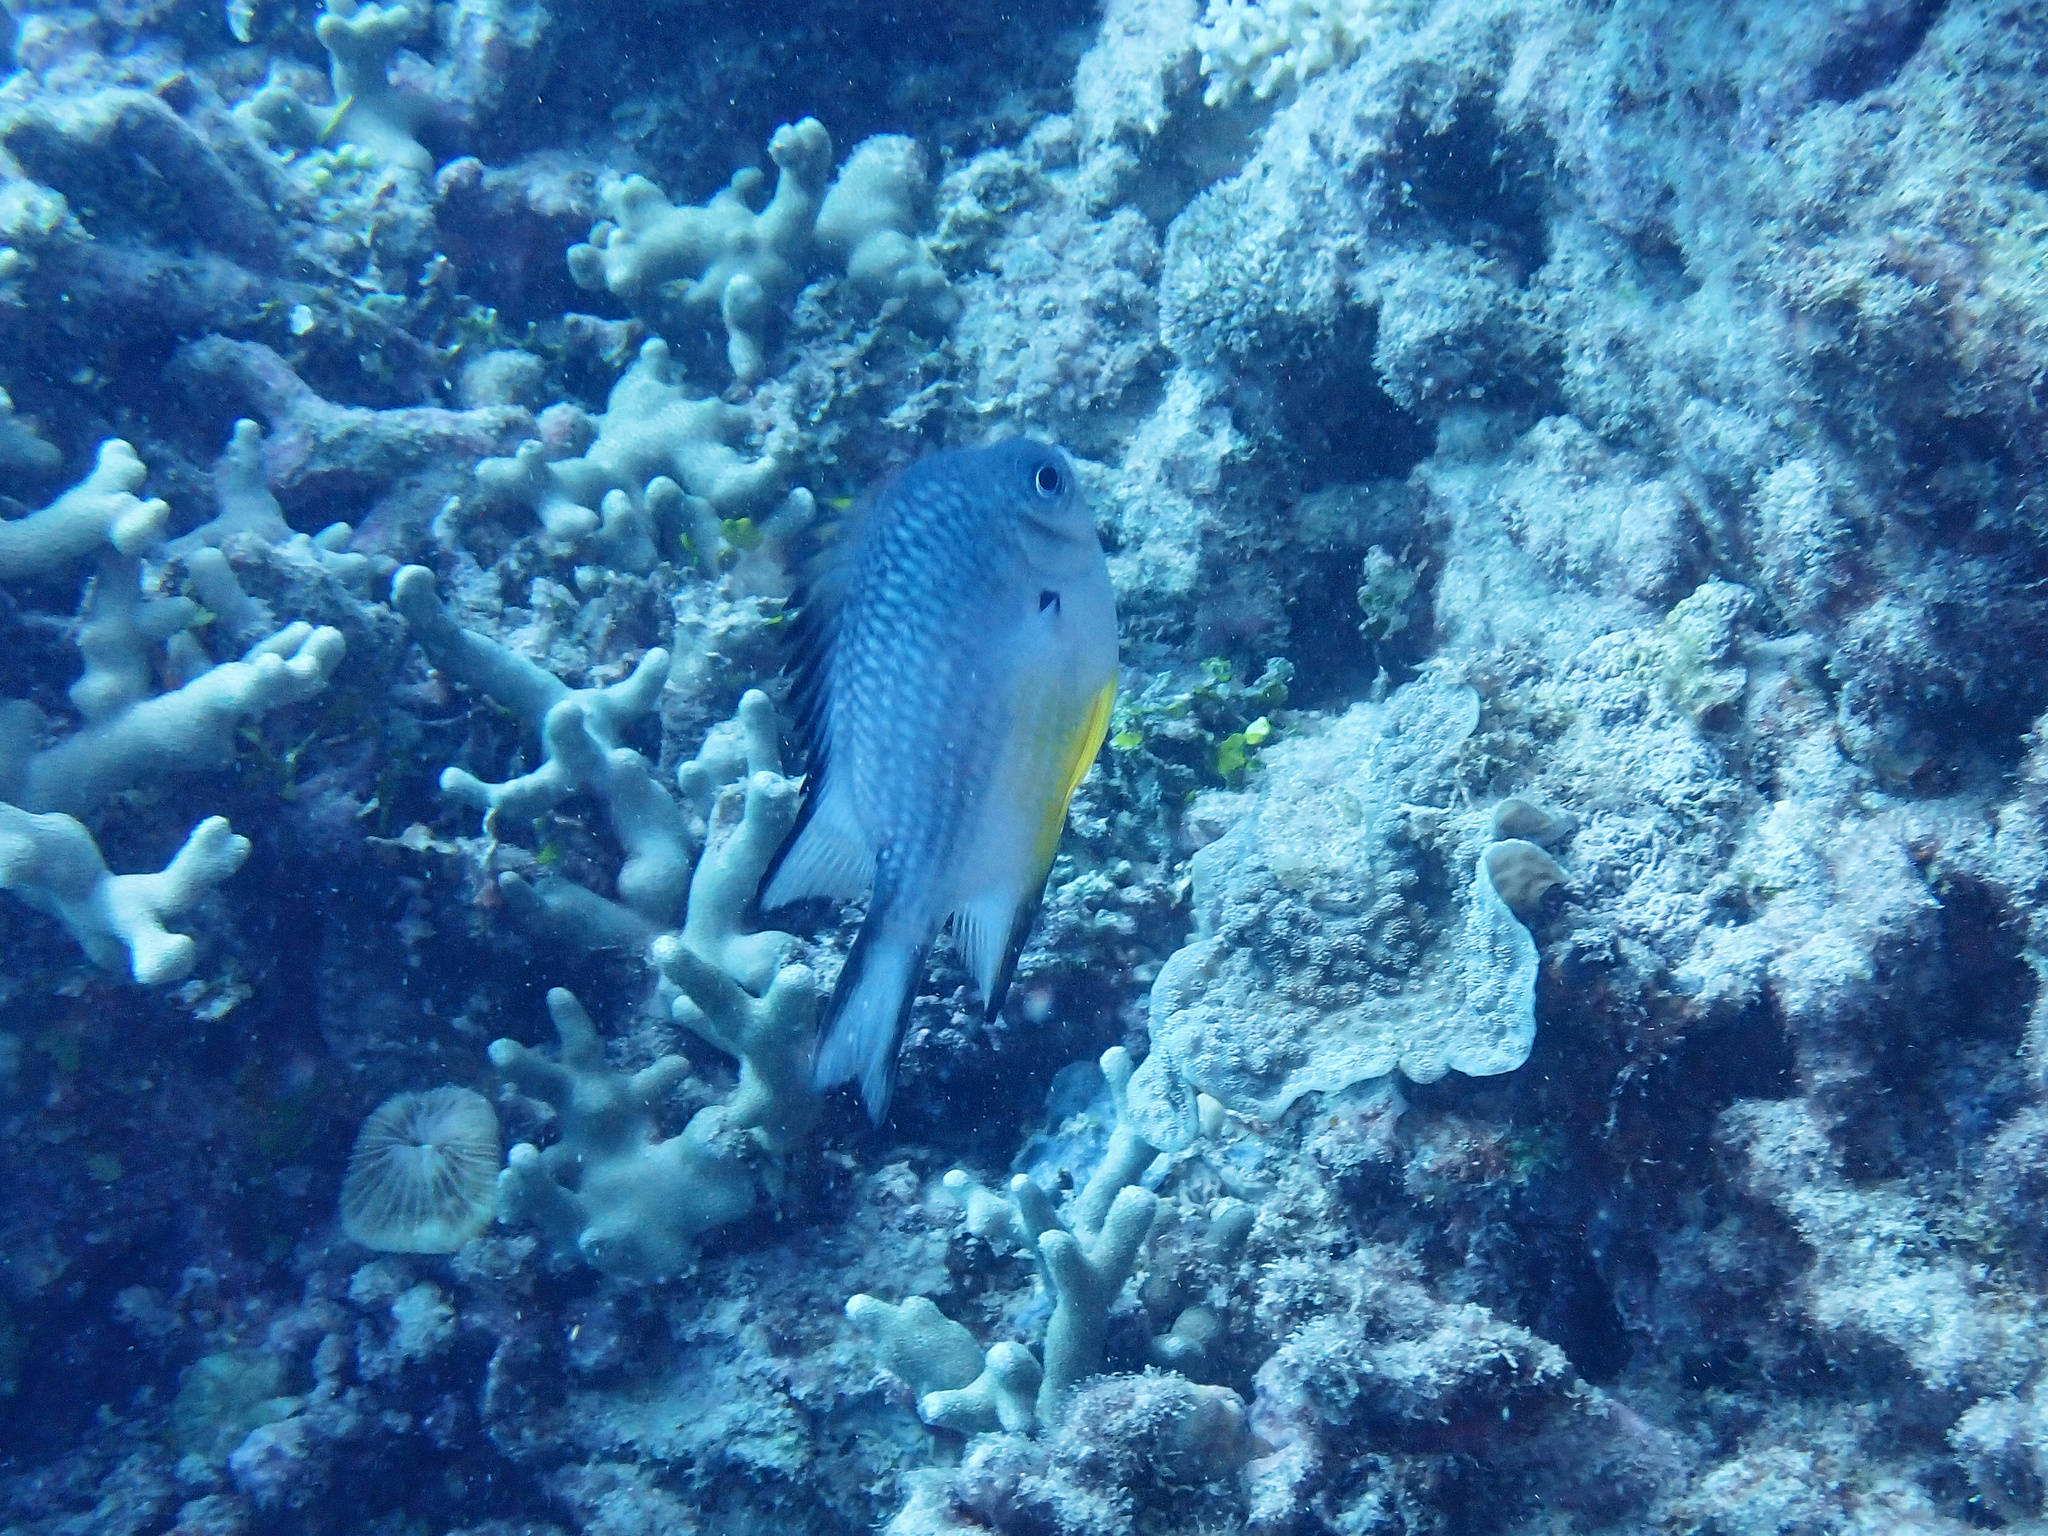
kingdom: Animalia
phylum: Chordata
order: Perciformes
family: Pomacentridae
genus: Amblyglyphidodon
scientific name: Amblyglyphidodon leucogaster
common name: White-belly damsel
